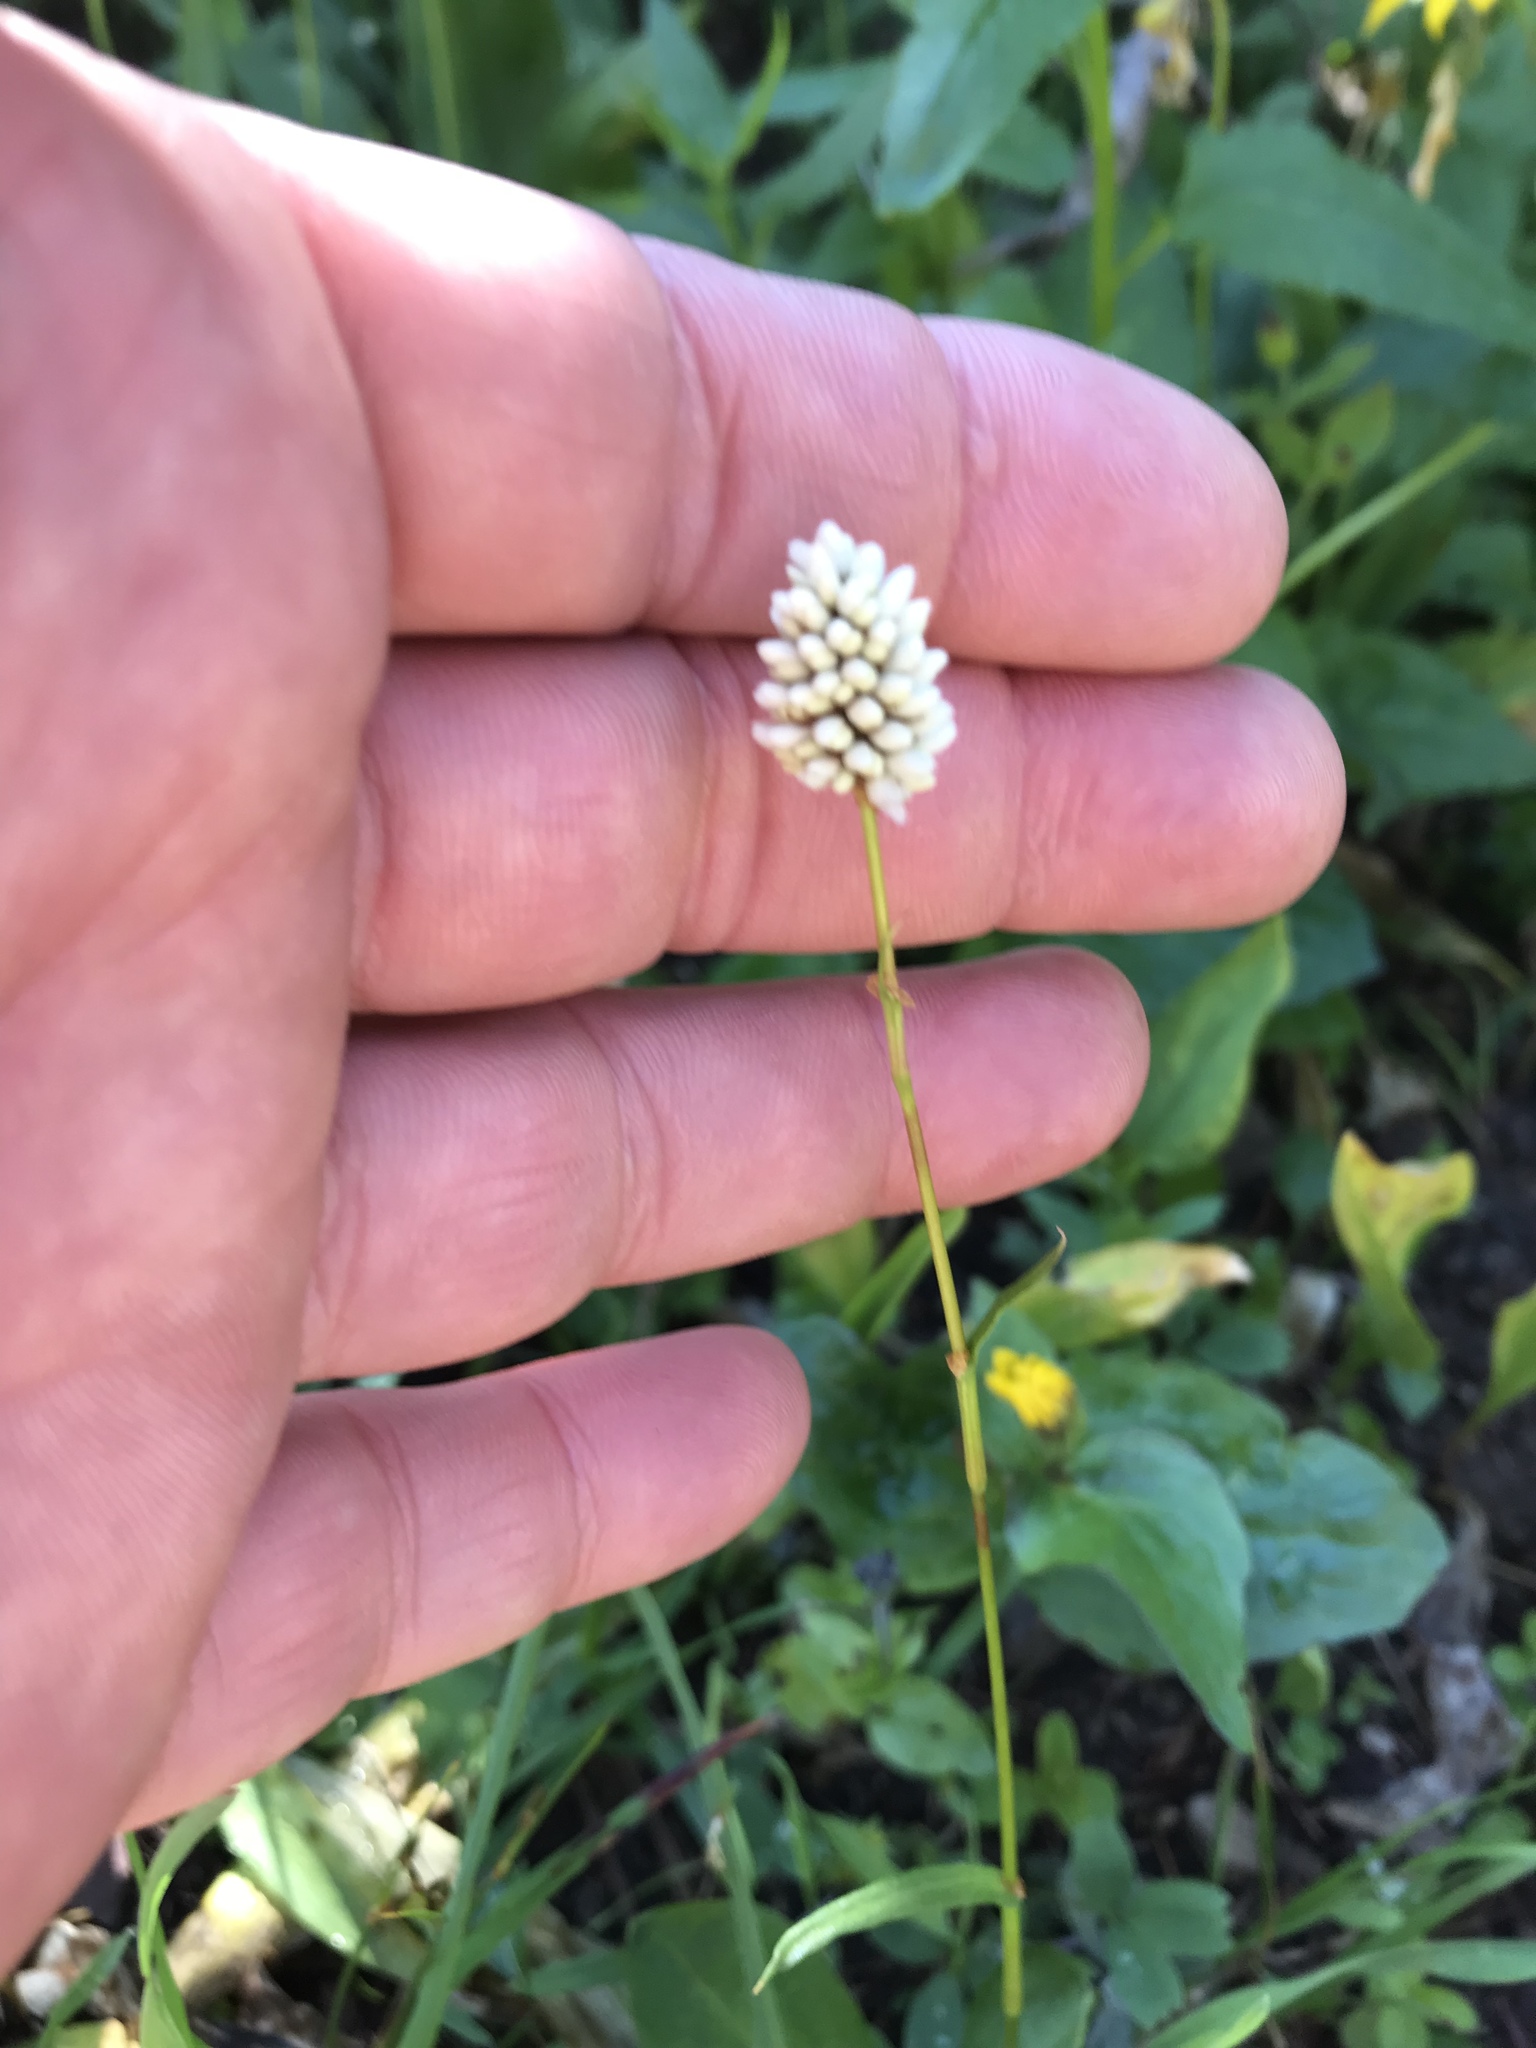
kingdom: Plantae
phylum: Tracheophyta
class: Magnoliopsida
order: Caryophyllales
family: Polygonaceae
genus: Bistorta
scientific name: Bistorta vivipara
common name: Alpine bistort
